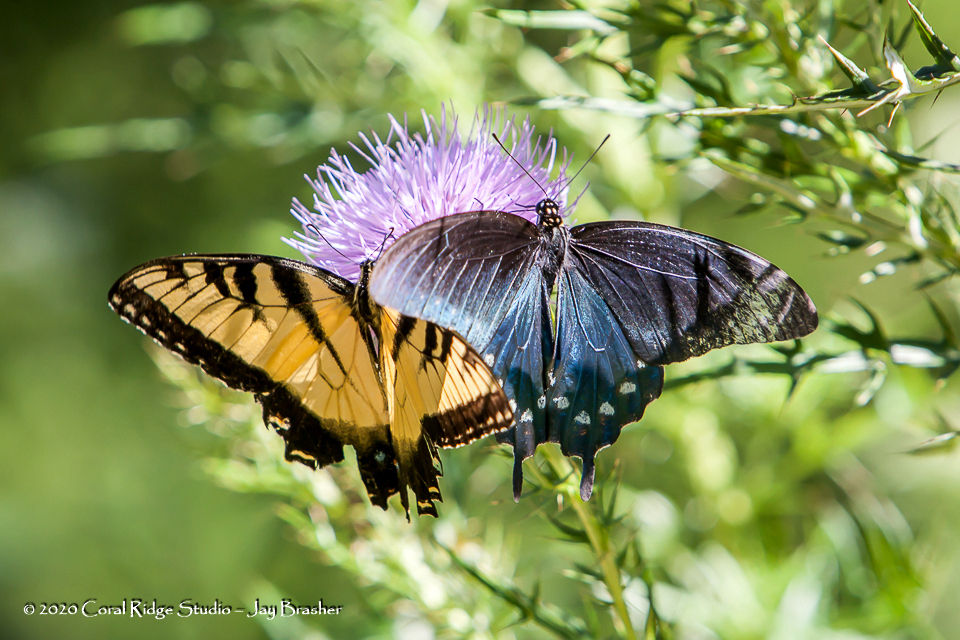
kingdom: Animalia
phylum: Arthropoda
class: Insecta
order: Lepidoptera
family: Papilionidae
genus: Battus
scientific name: Battus philenor
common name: Pipevine swallowtail
